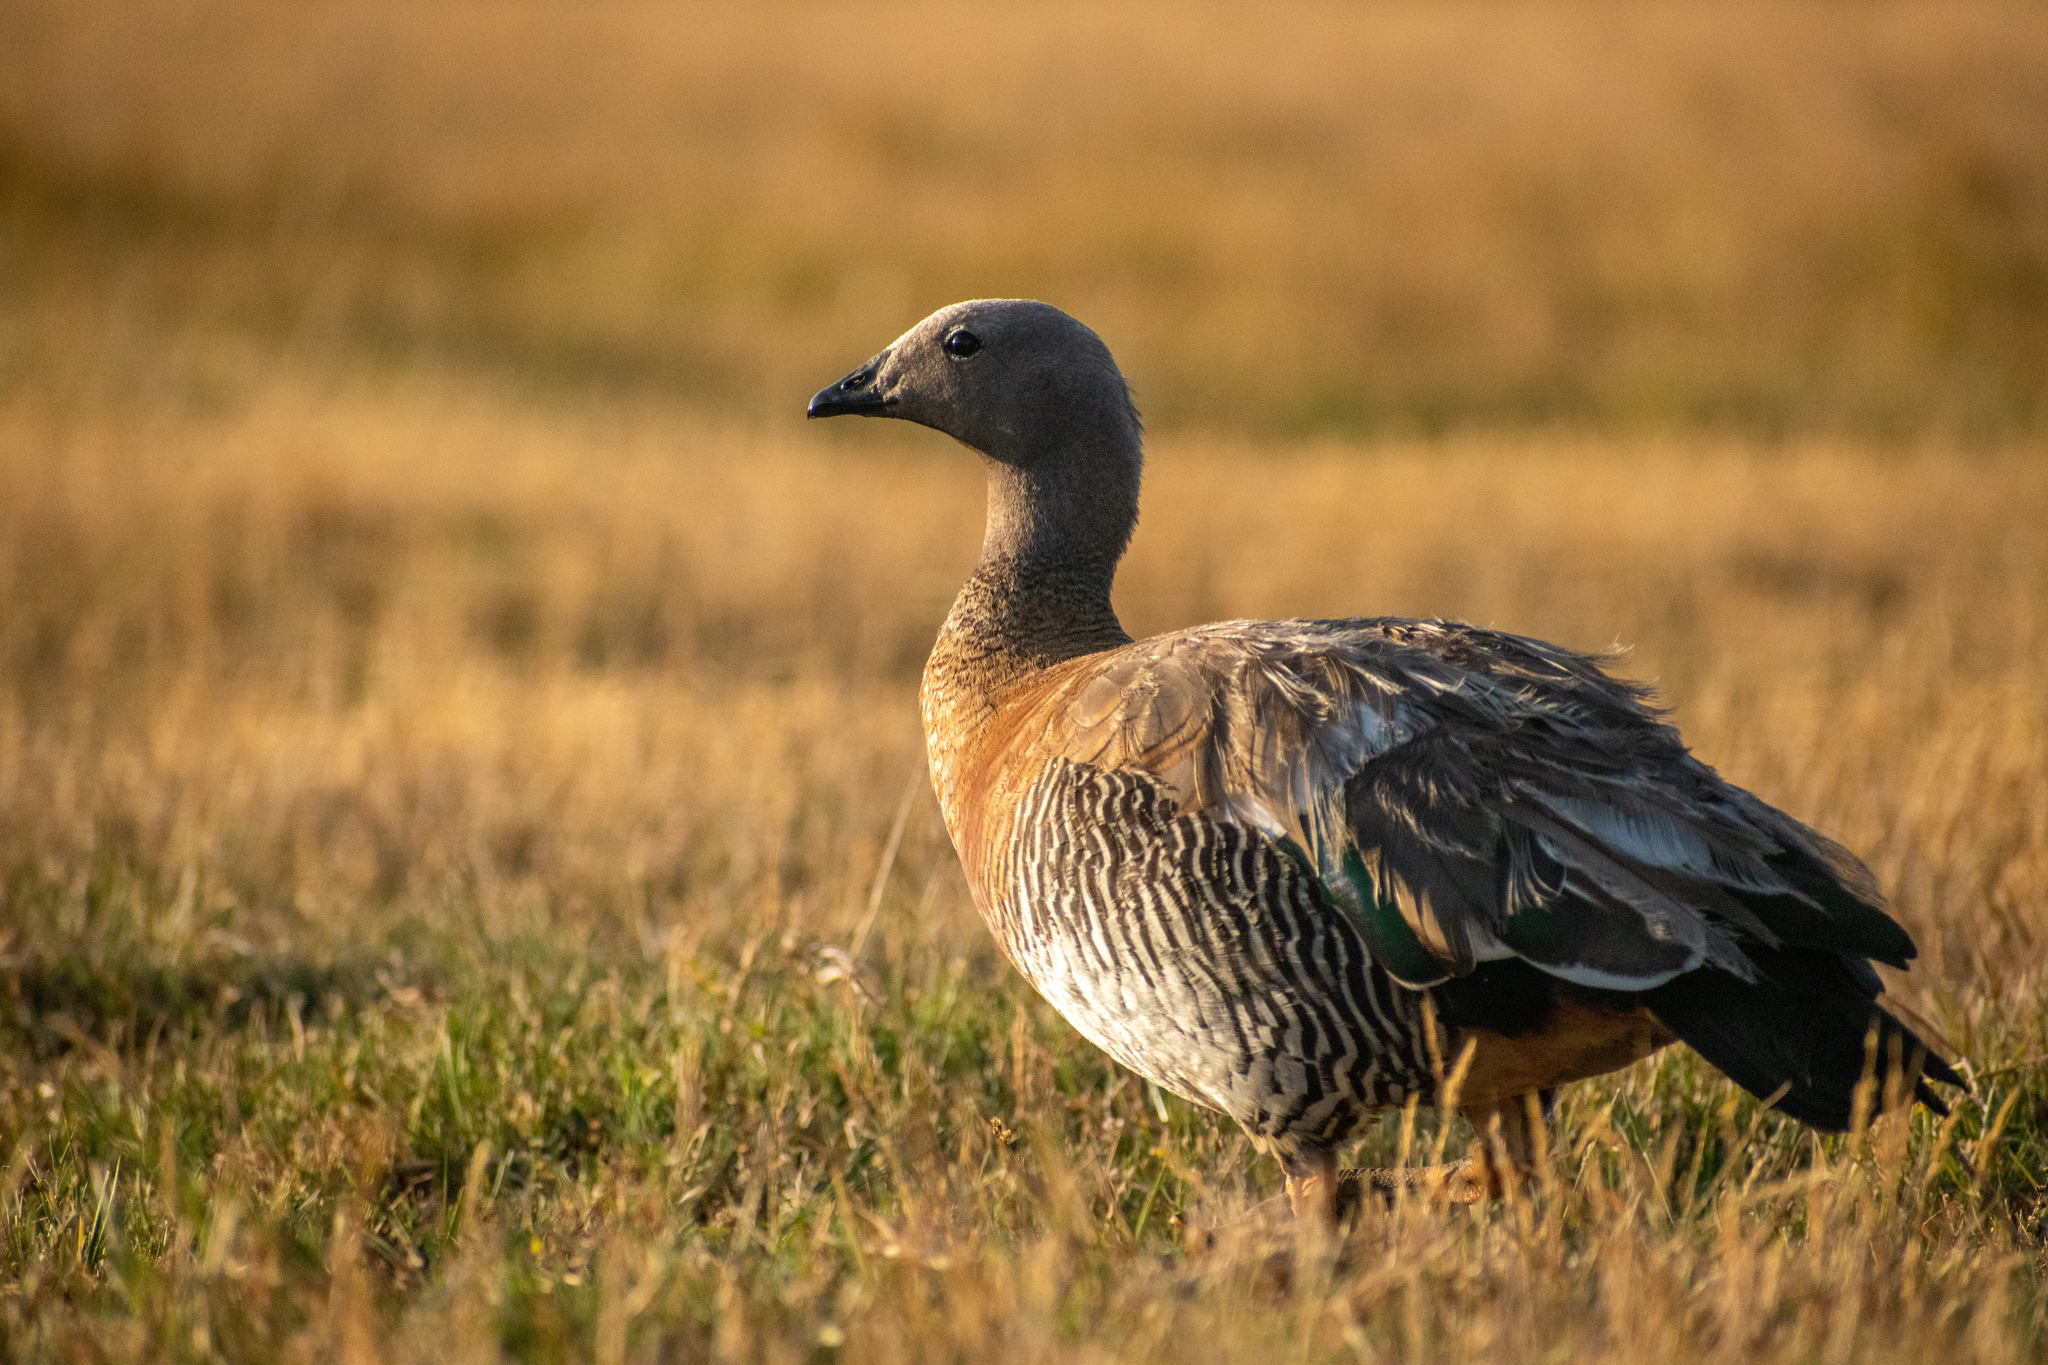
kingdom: Animalia
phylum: Chordata
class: Aves
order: Anseriformes
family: Anatidae
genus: Chloephaga
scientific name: Chloephaga poliocephala
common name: Ashy-headed goose
